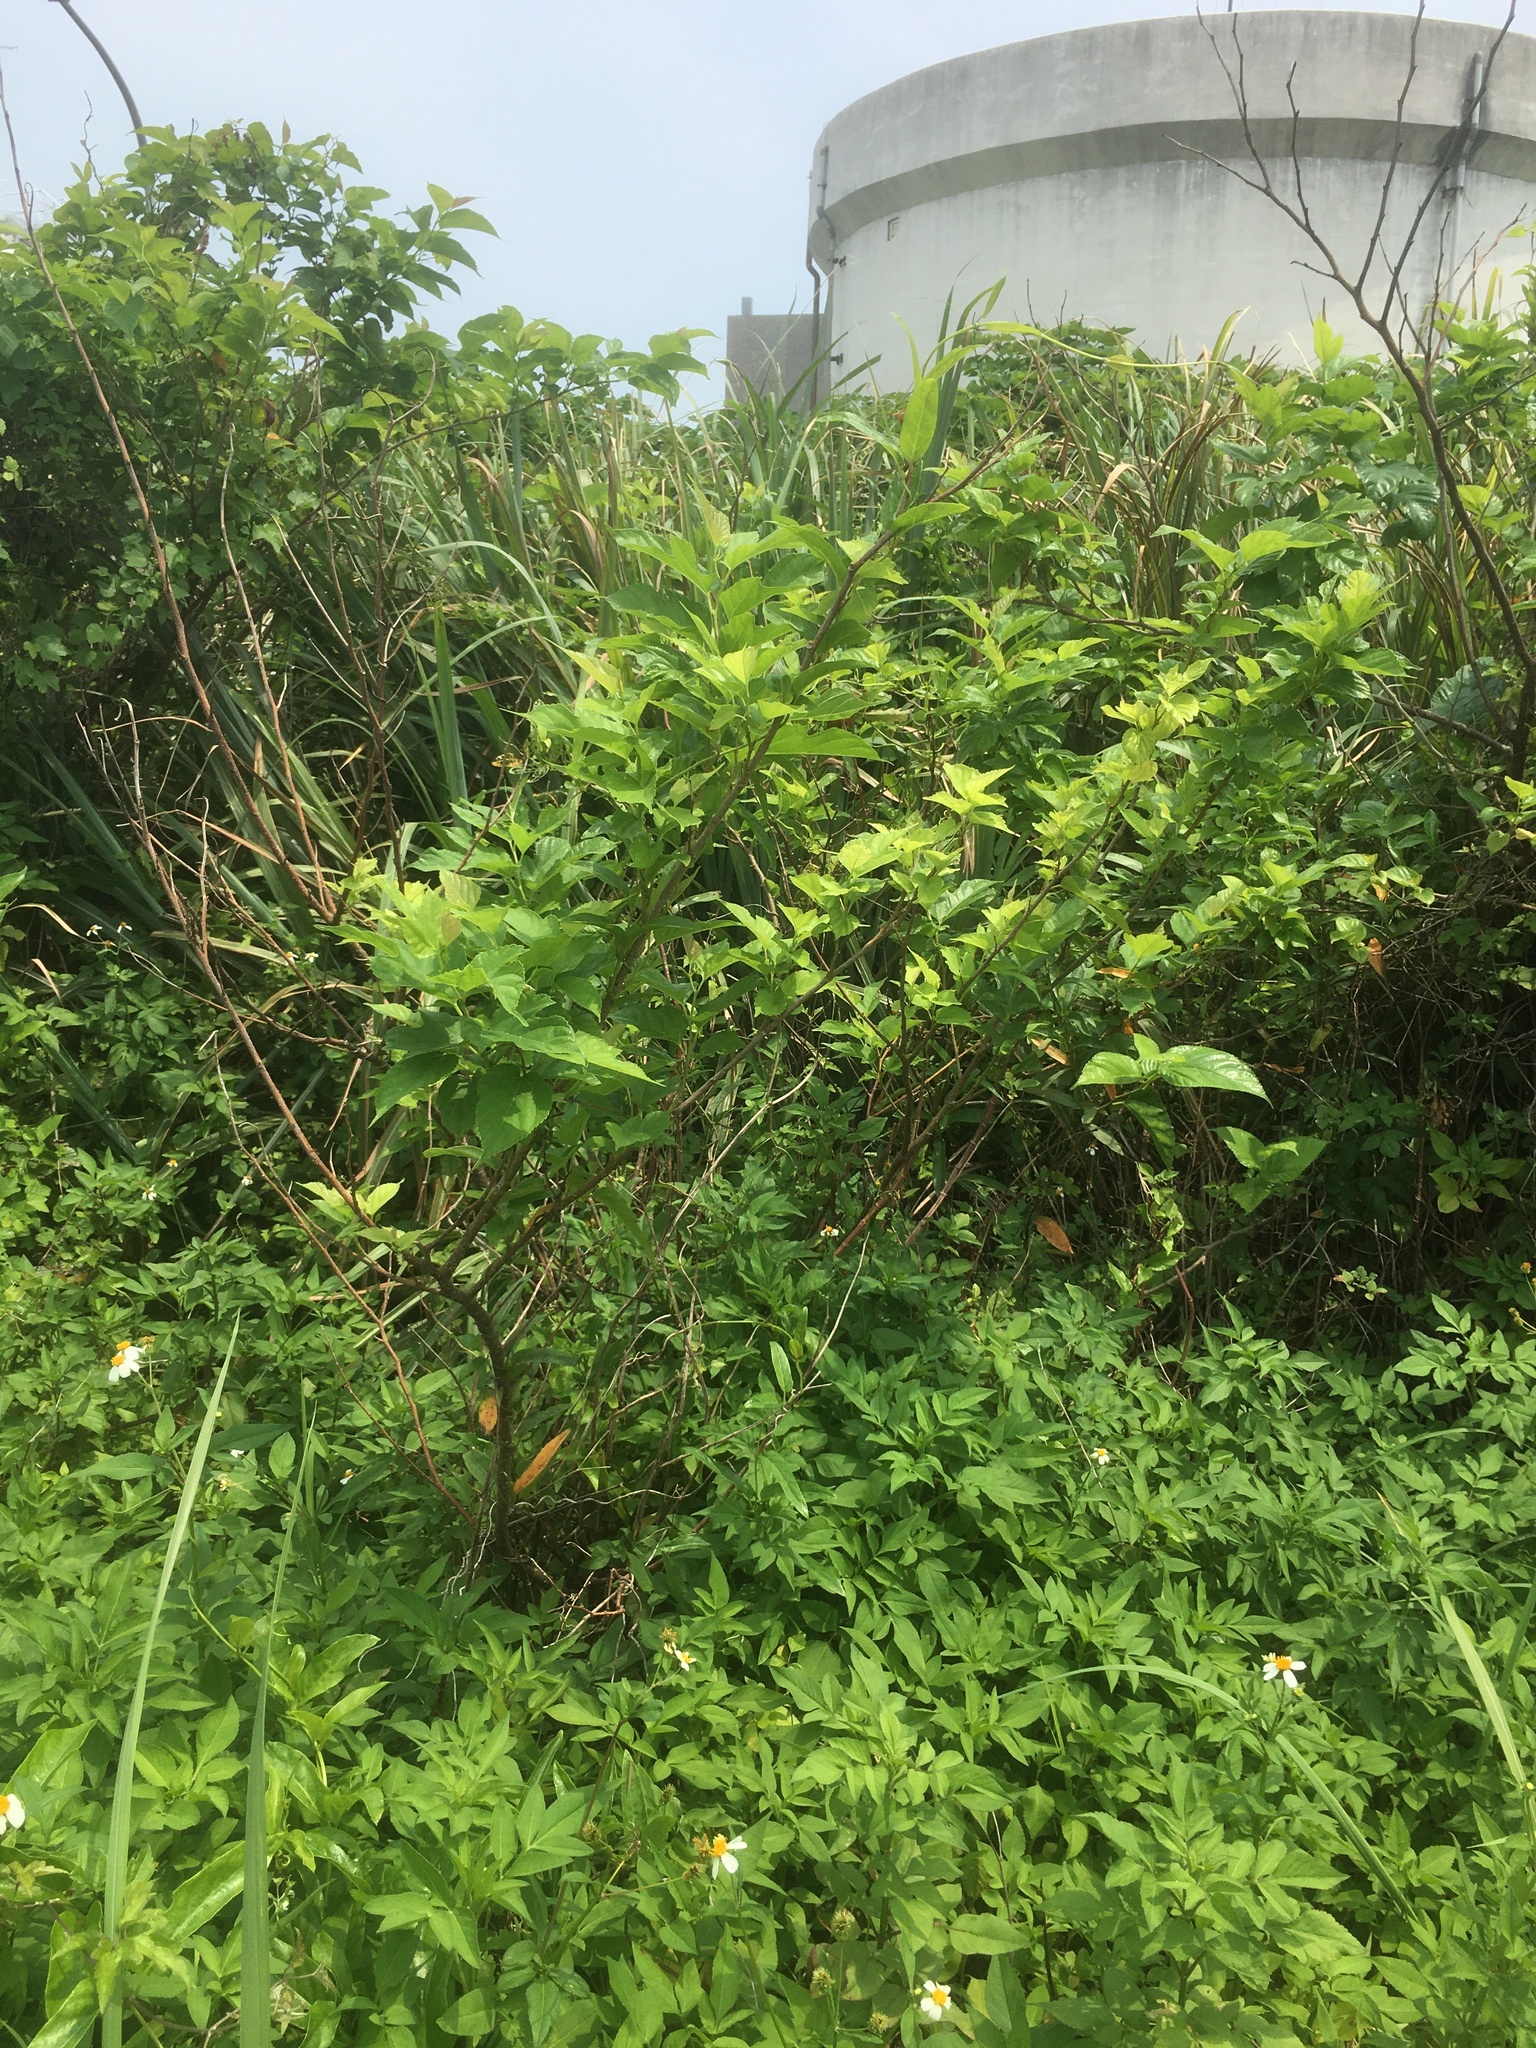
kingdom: Plantae
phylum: Tracheophyta
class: Magnoliopsida
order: Rosales
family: Moraceae
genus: Morus
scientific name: Morus indica
